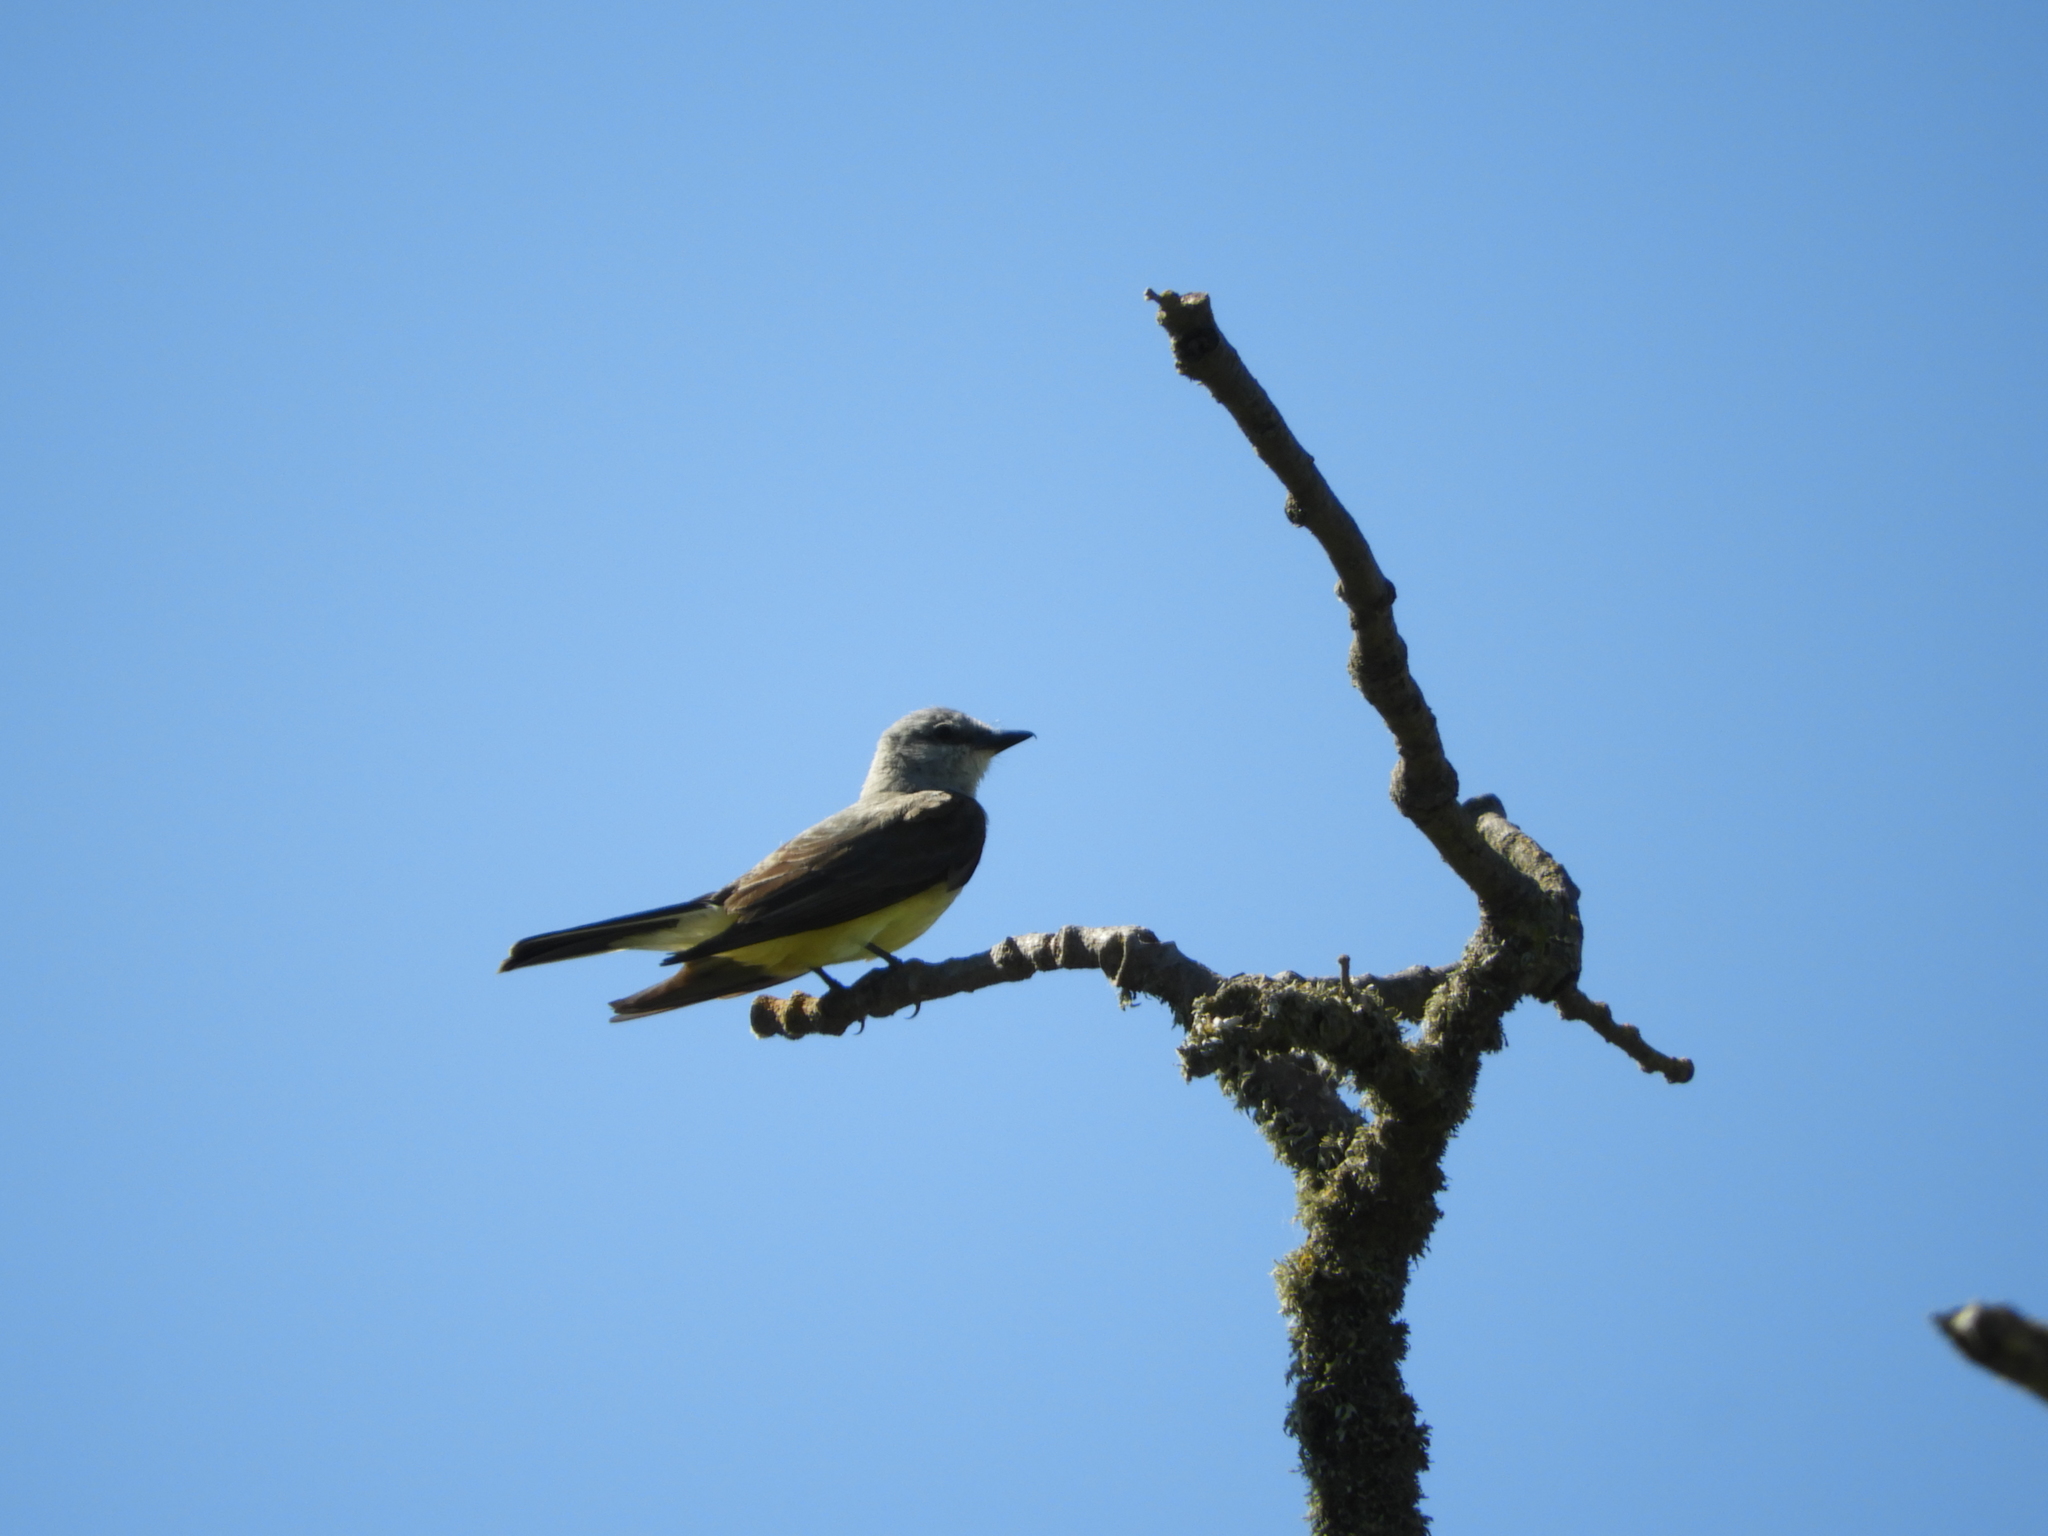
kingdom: Animalia
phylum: Chordata
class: Aves
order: Passeriformes
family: Tyrannidae
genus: Tyrannus
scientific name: Tyrannus verticalis
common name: Western kingbird
